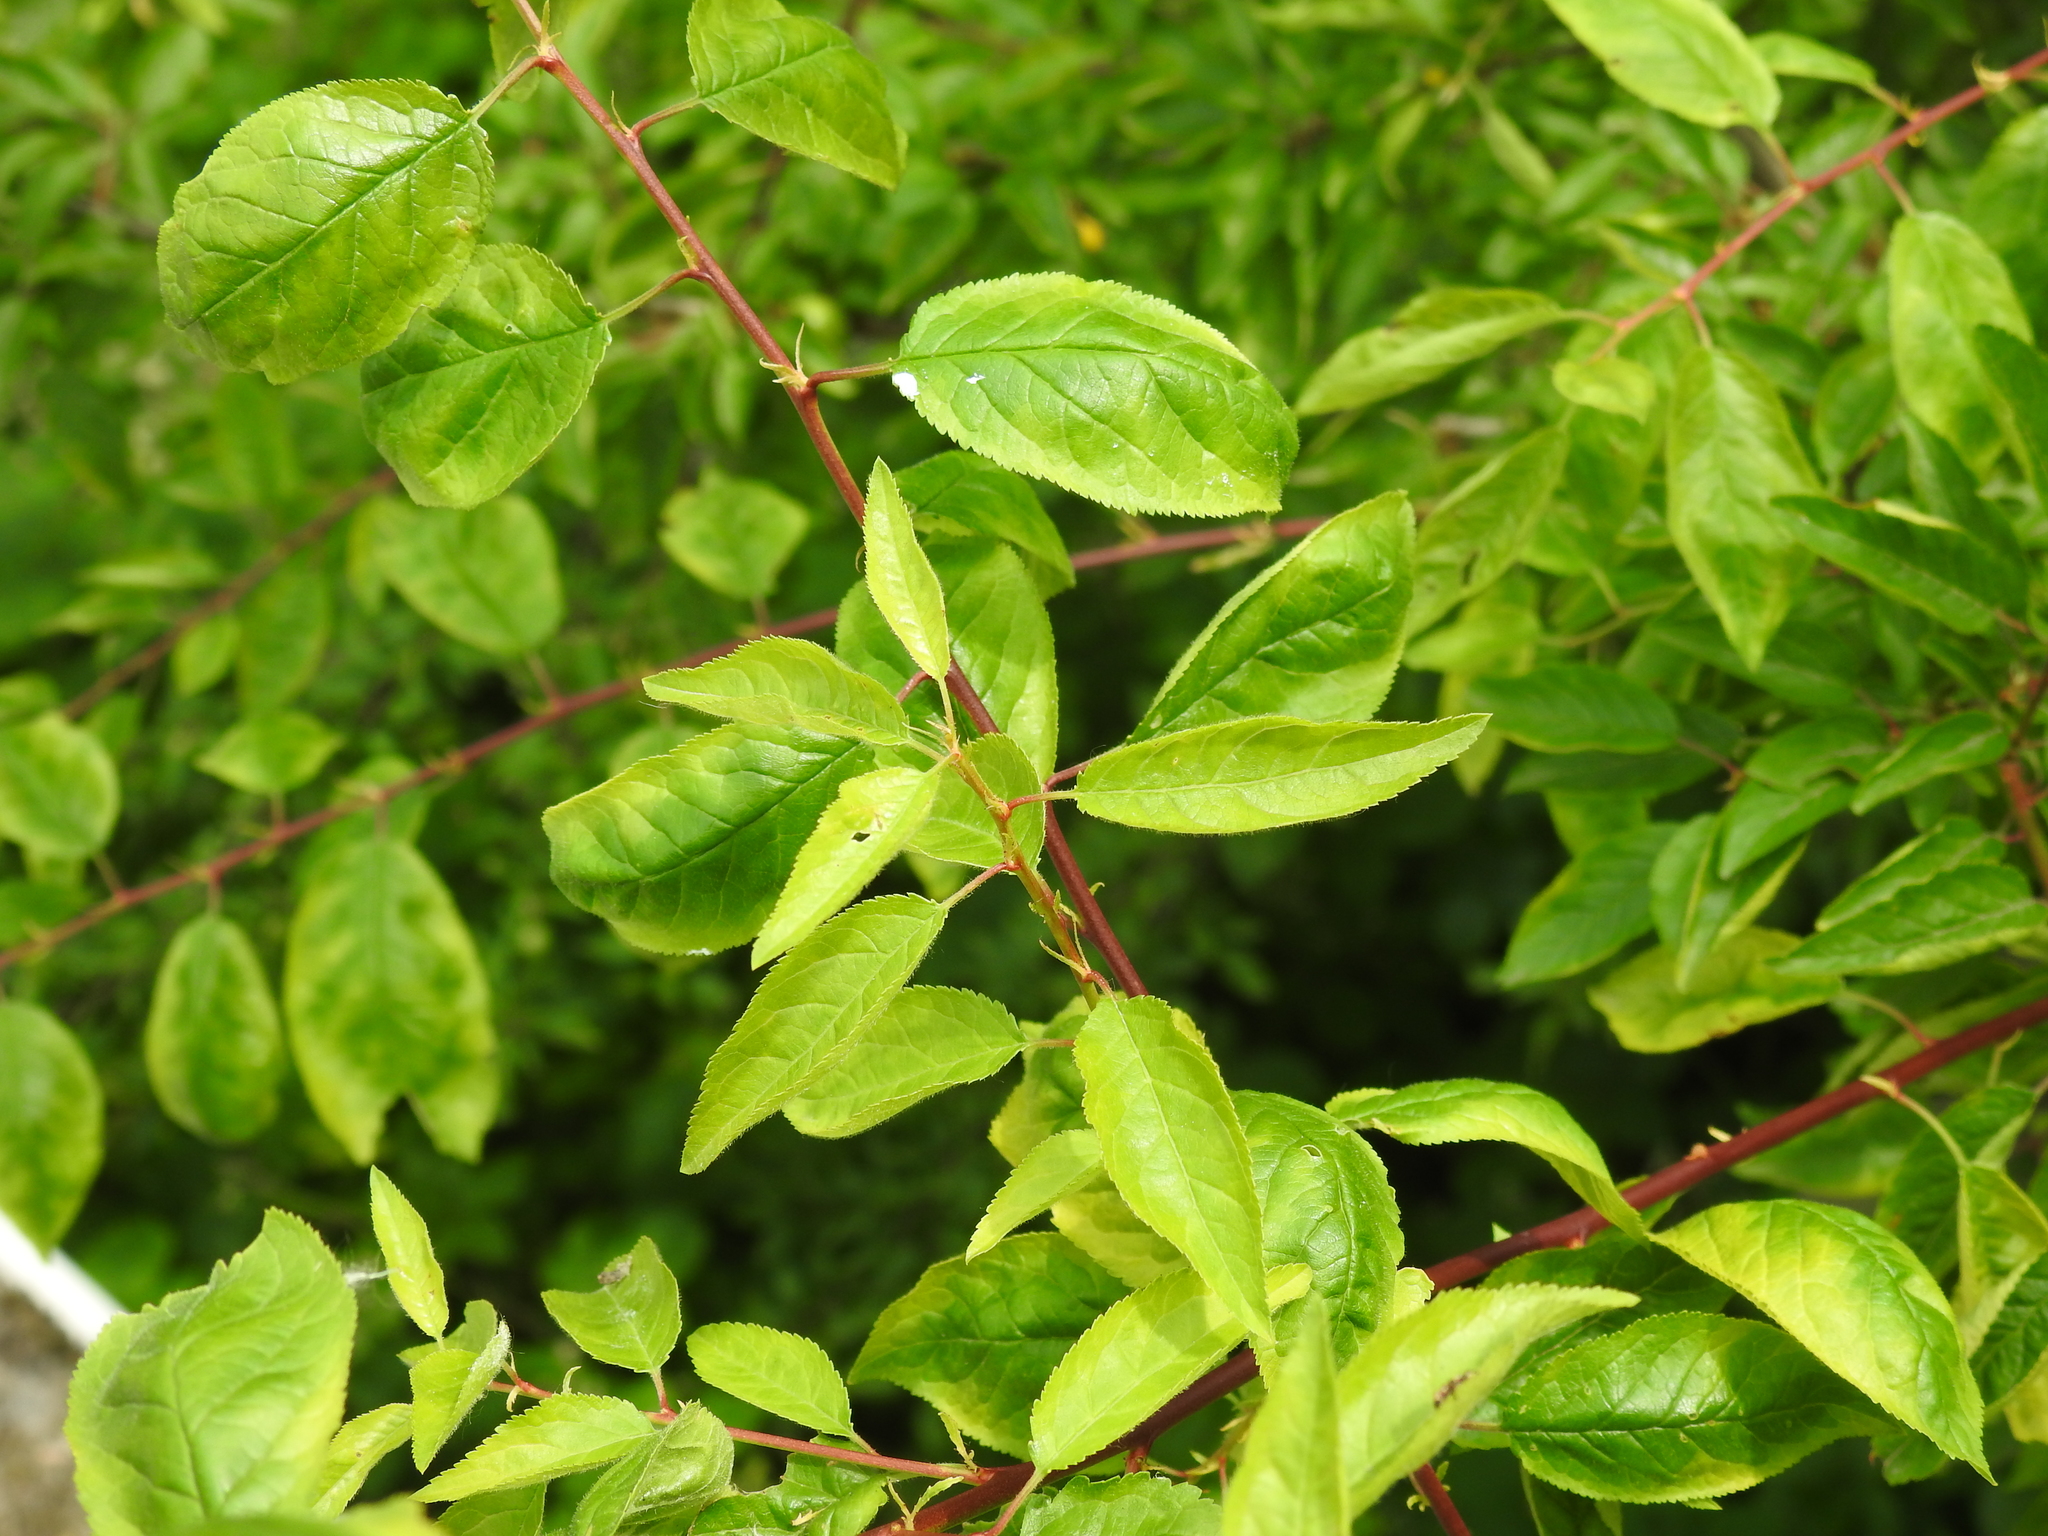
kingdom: Plantae
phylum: Tracheophyta
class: Magnoliopsida
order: Rosales
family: Rosaceae
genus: Prunus
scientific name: Prunus cerasifera
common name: Cherry plum
